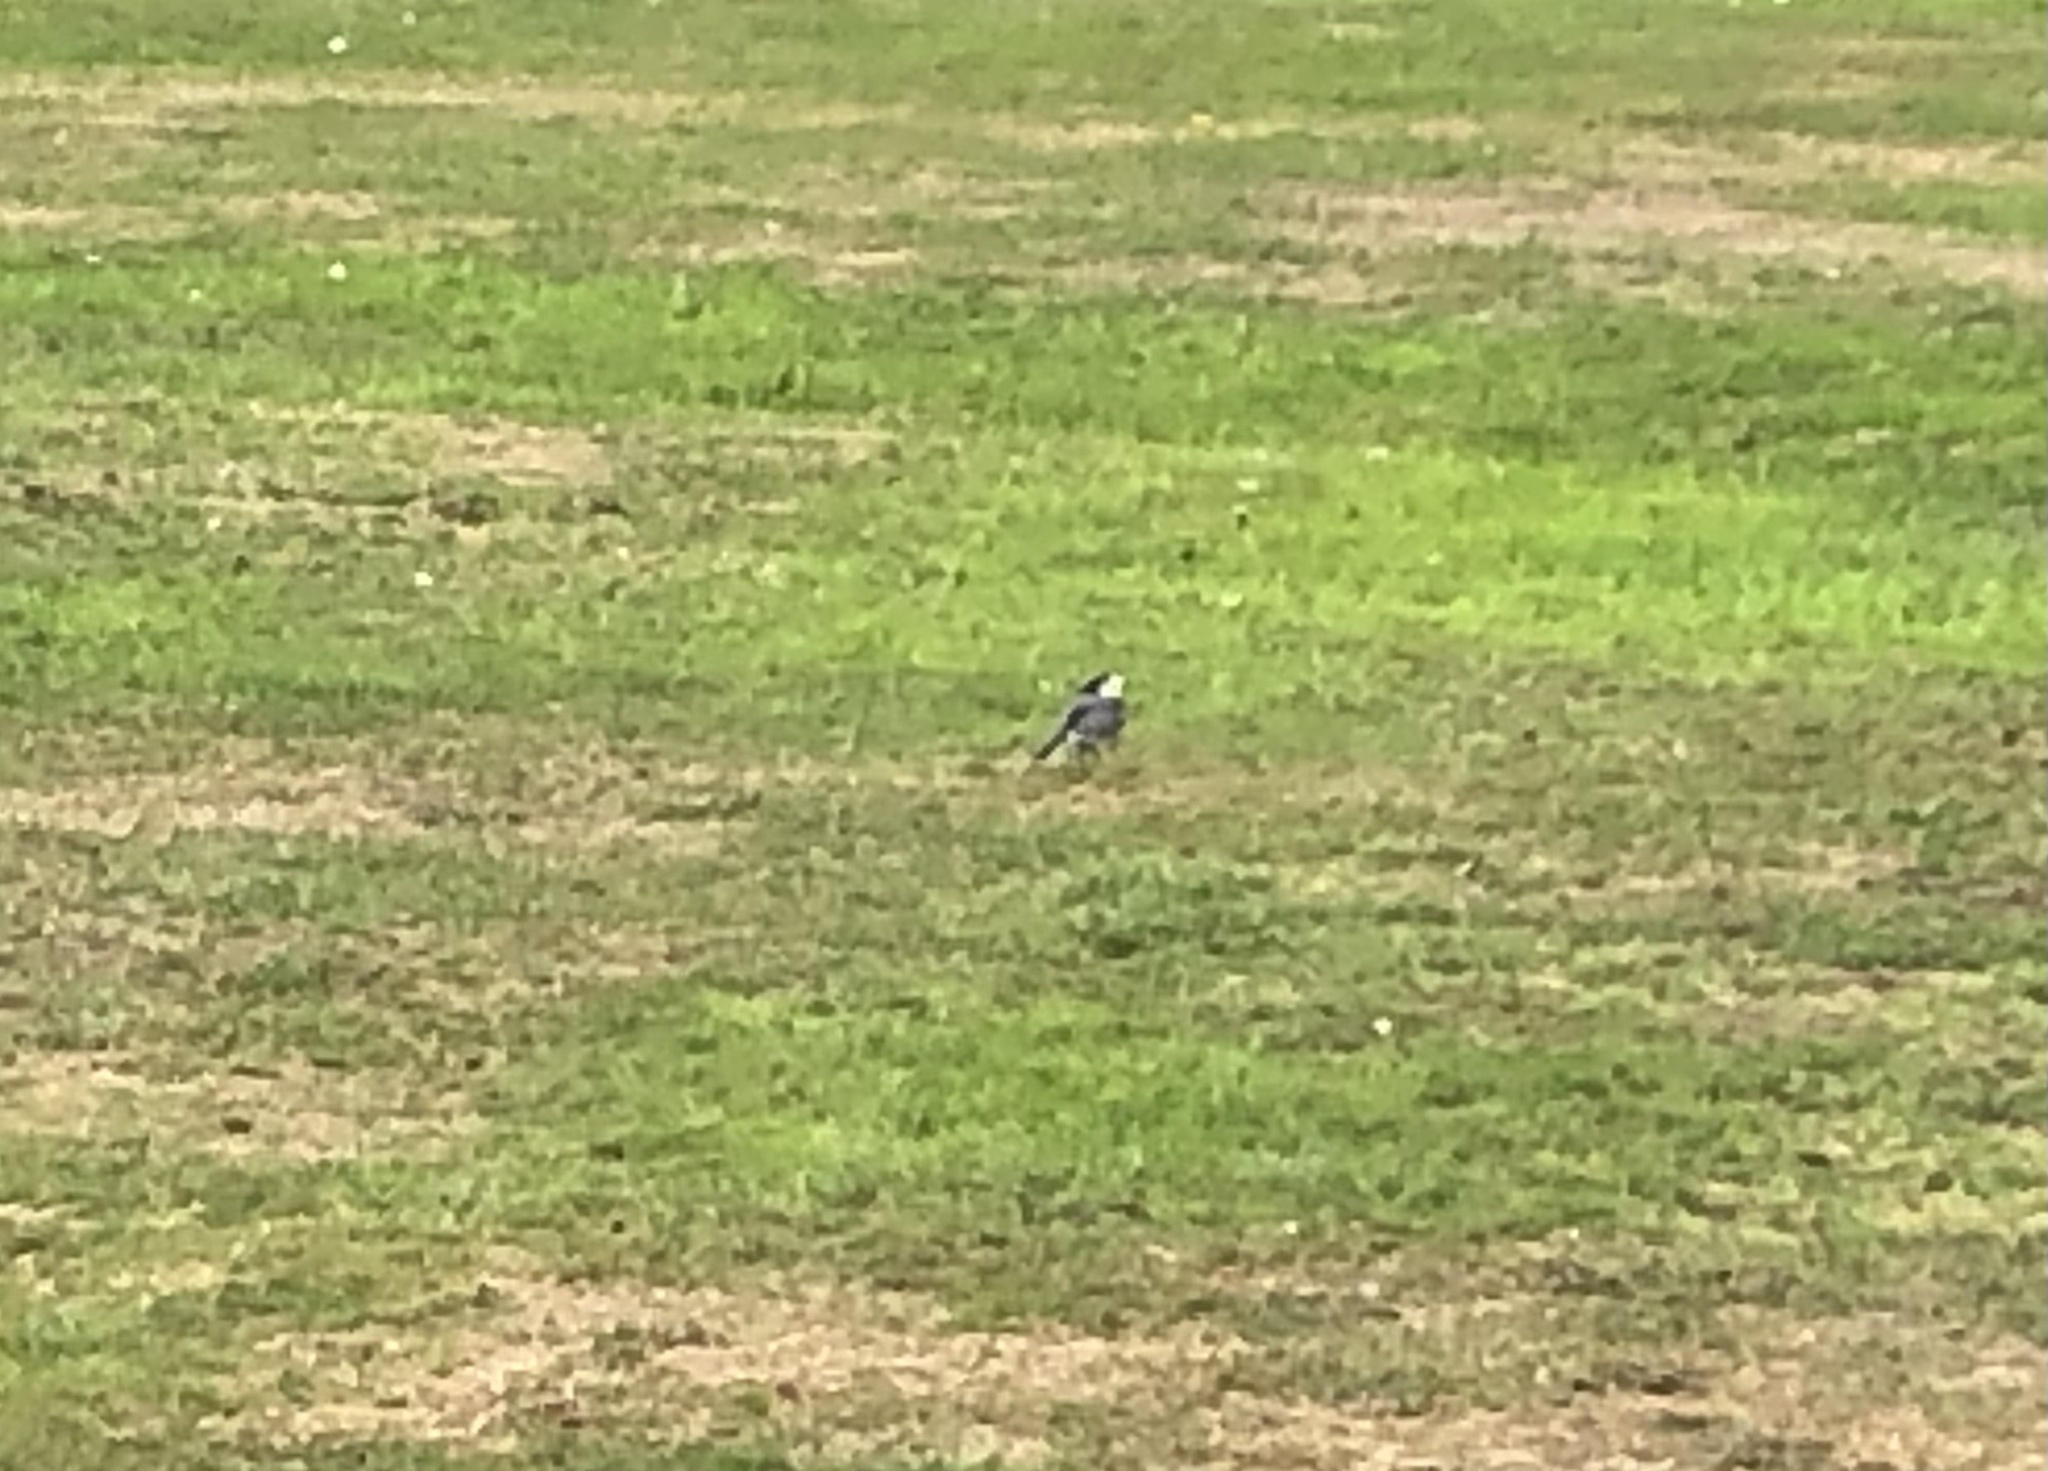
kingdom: Animalia
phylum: Chordata
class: Aves
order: Passeriformes
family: Motacillidae
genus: Motacilla
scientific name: Motacilla alba
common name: White wagtail
